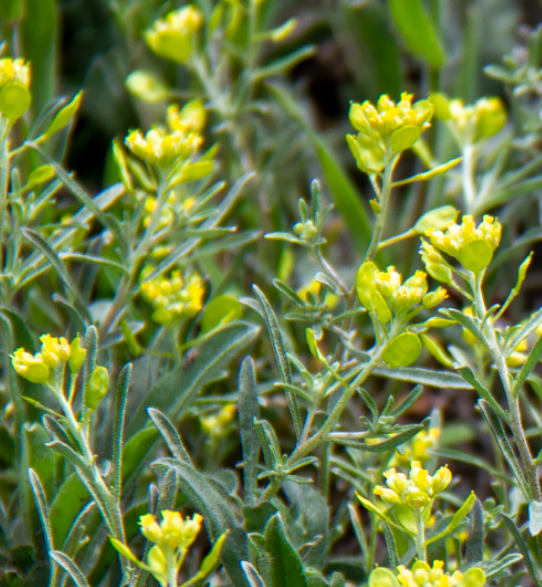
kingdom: Plantae
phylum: Tracheophyta
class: Magnoliopsida
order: Brassicales
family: Brassicaceae
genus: Meniocus
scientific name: Meniocus linifolius
